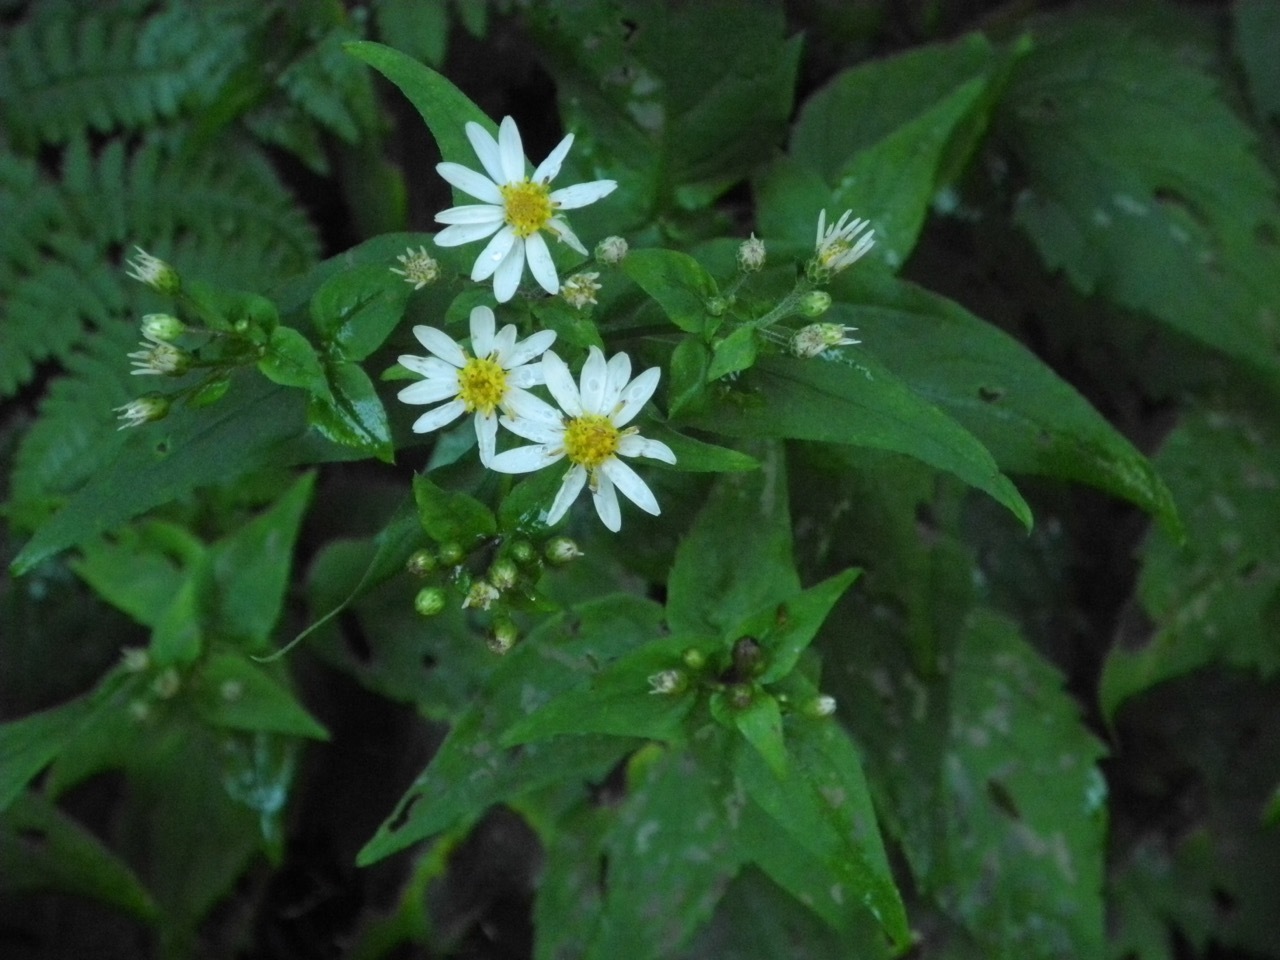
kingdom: Plantae
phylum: Tracheophyta
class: Magnoliopsida
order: Asterales
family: Asteraceae
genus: Eurybia
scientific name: Eurybia divaricata
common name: White wood aster
